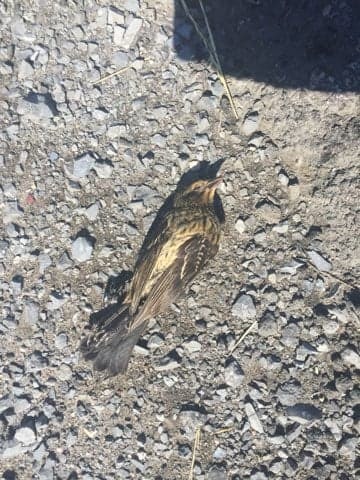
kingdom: Animalia
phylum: Chordata
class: Aves
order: Passeriformes
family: Icteridae
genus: Agelaius
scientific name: Agelaius phoeniceus
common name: Red-winged blackbird
